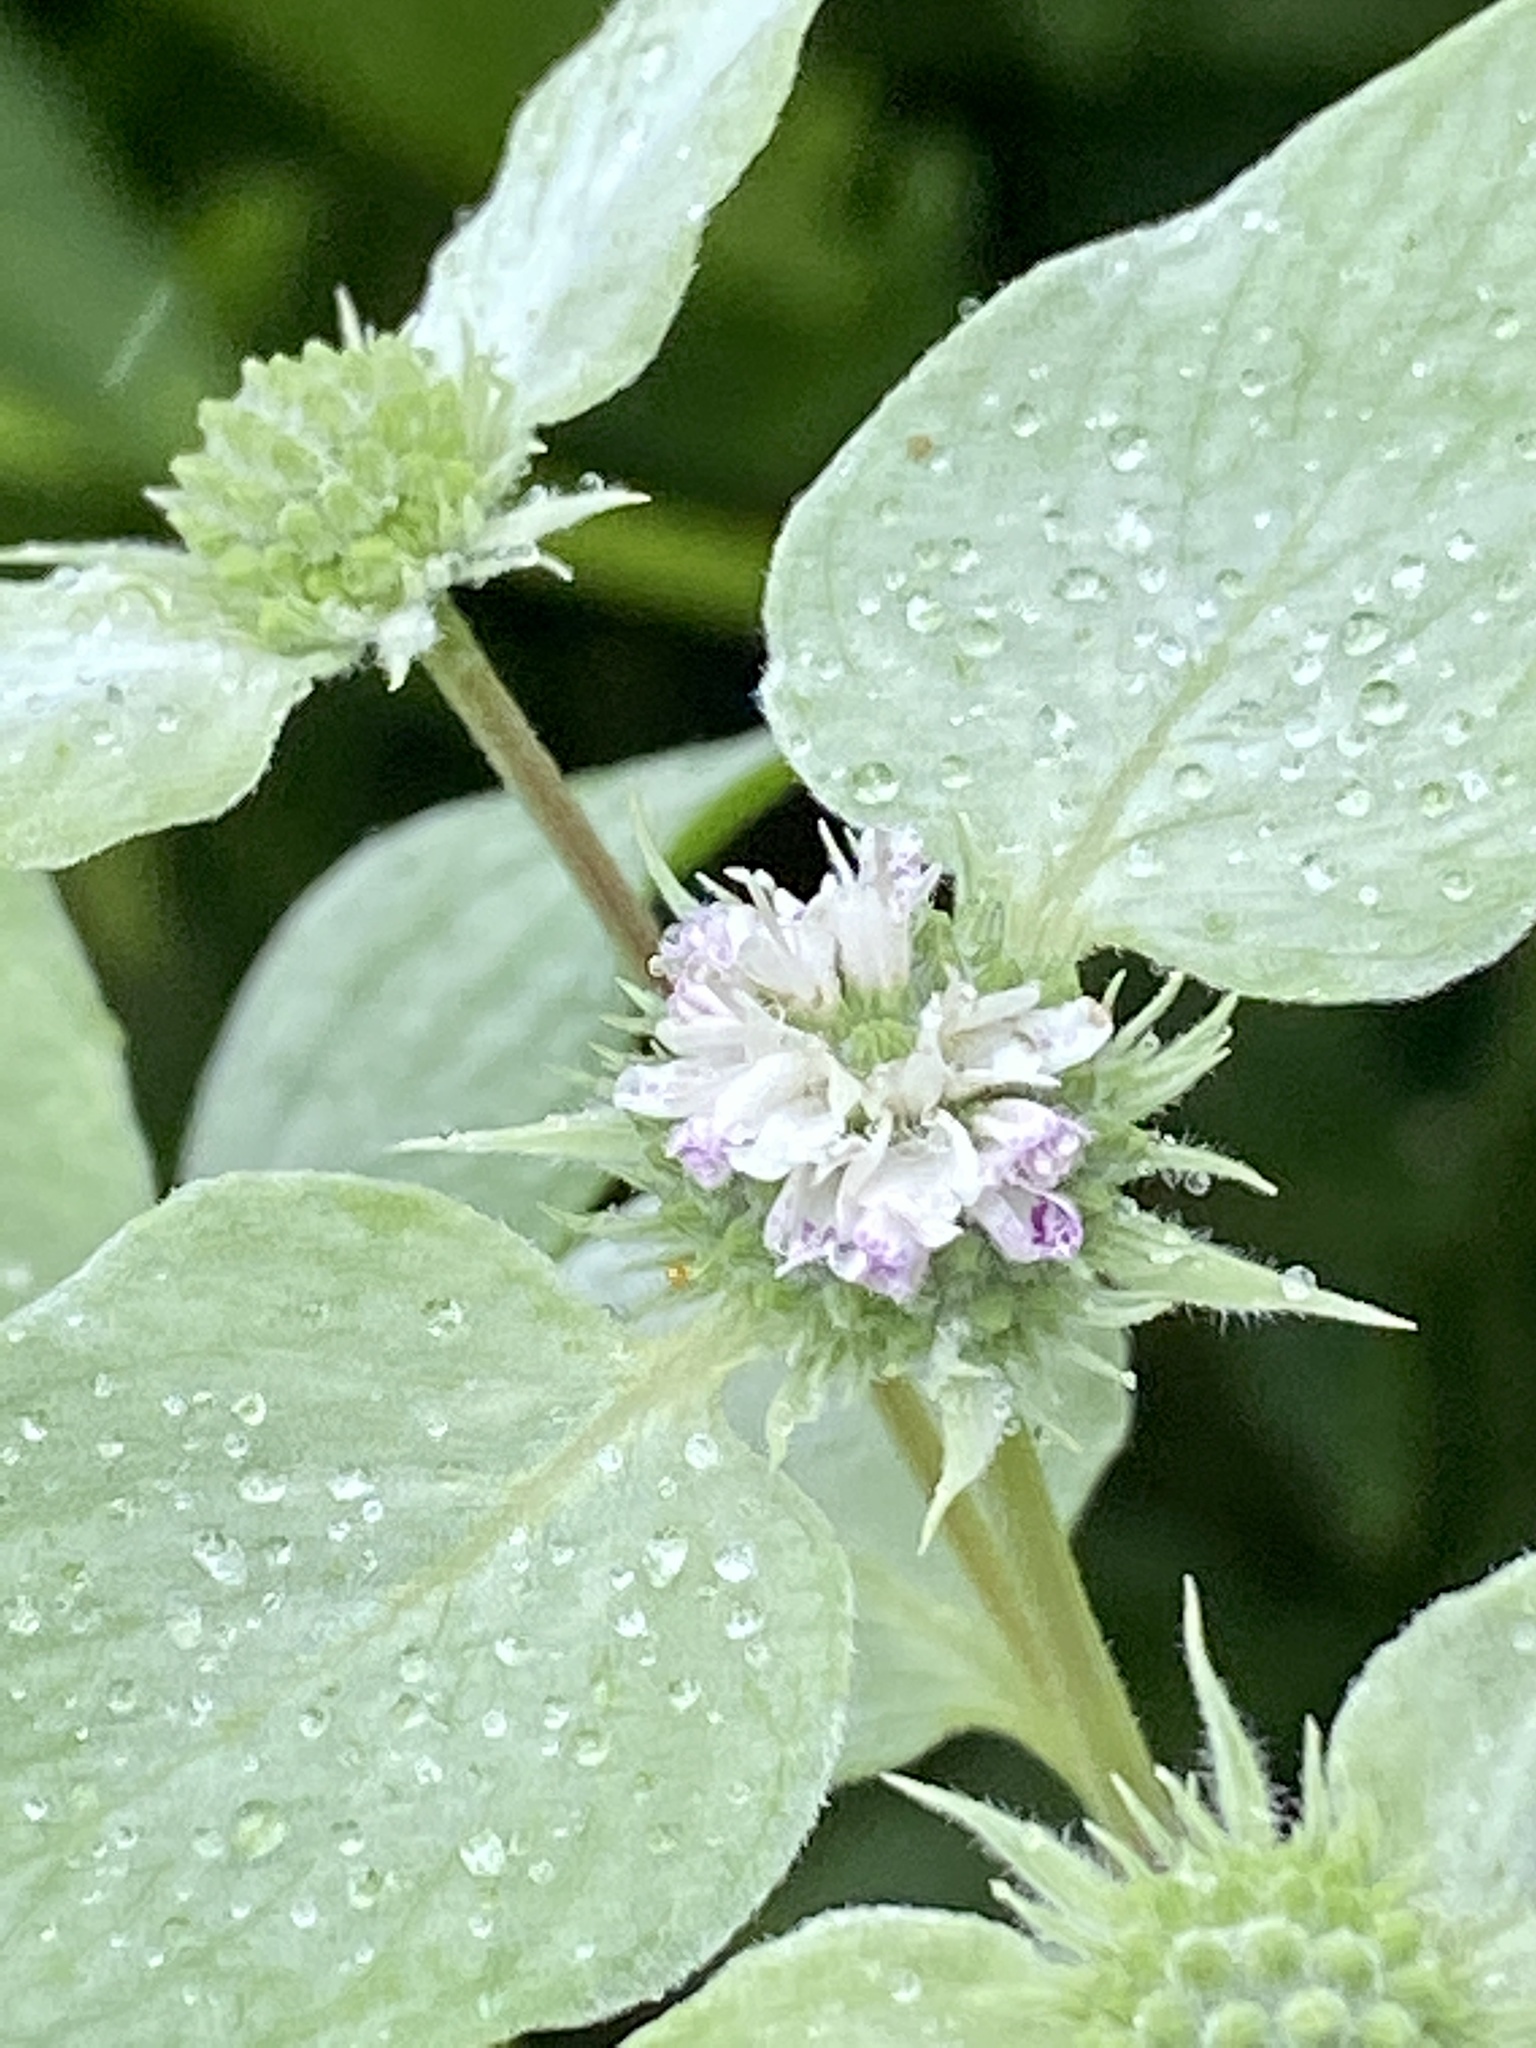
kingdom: Plantae
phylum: Tracheophyta
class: Magnoliopsida
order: Lamiales
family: Lamiaceae
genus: Pycnanthemum
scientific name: Pycnanthemum muticum
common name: Blunt mountain-mint
